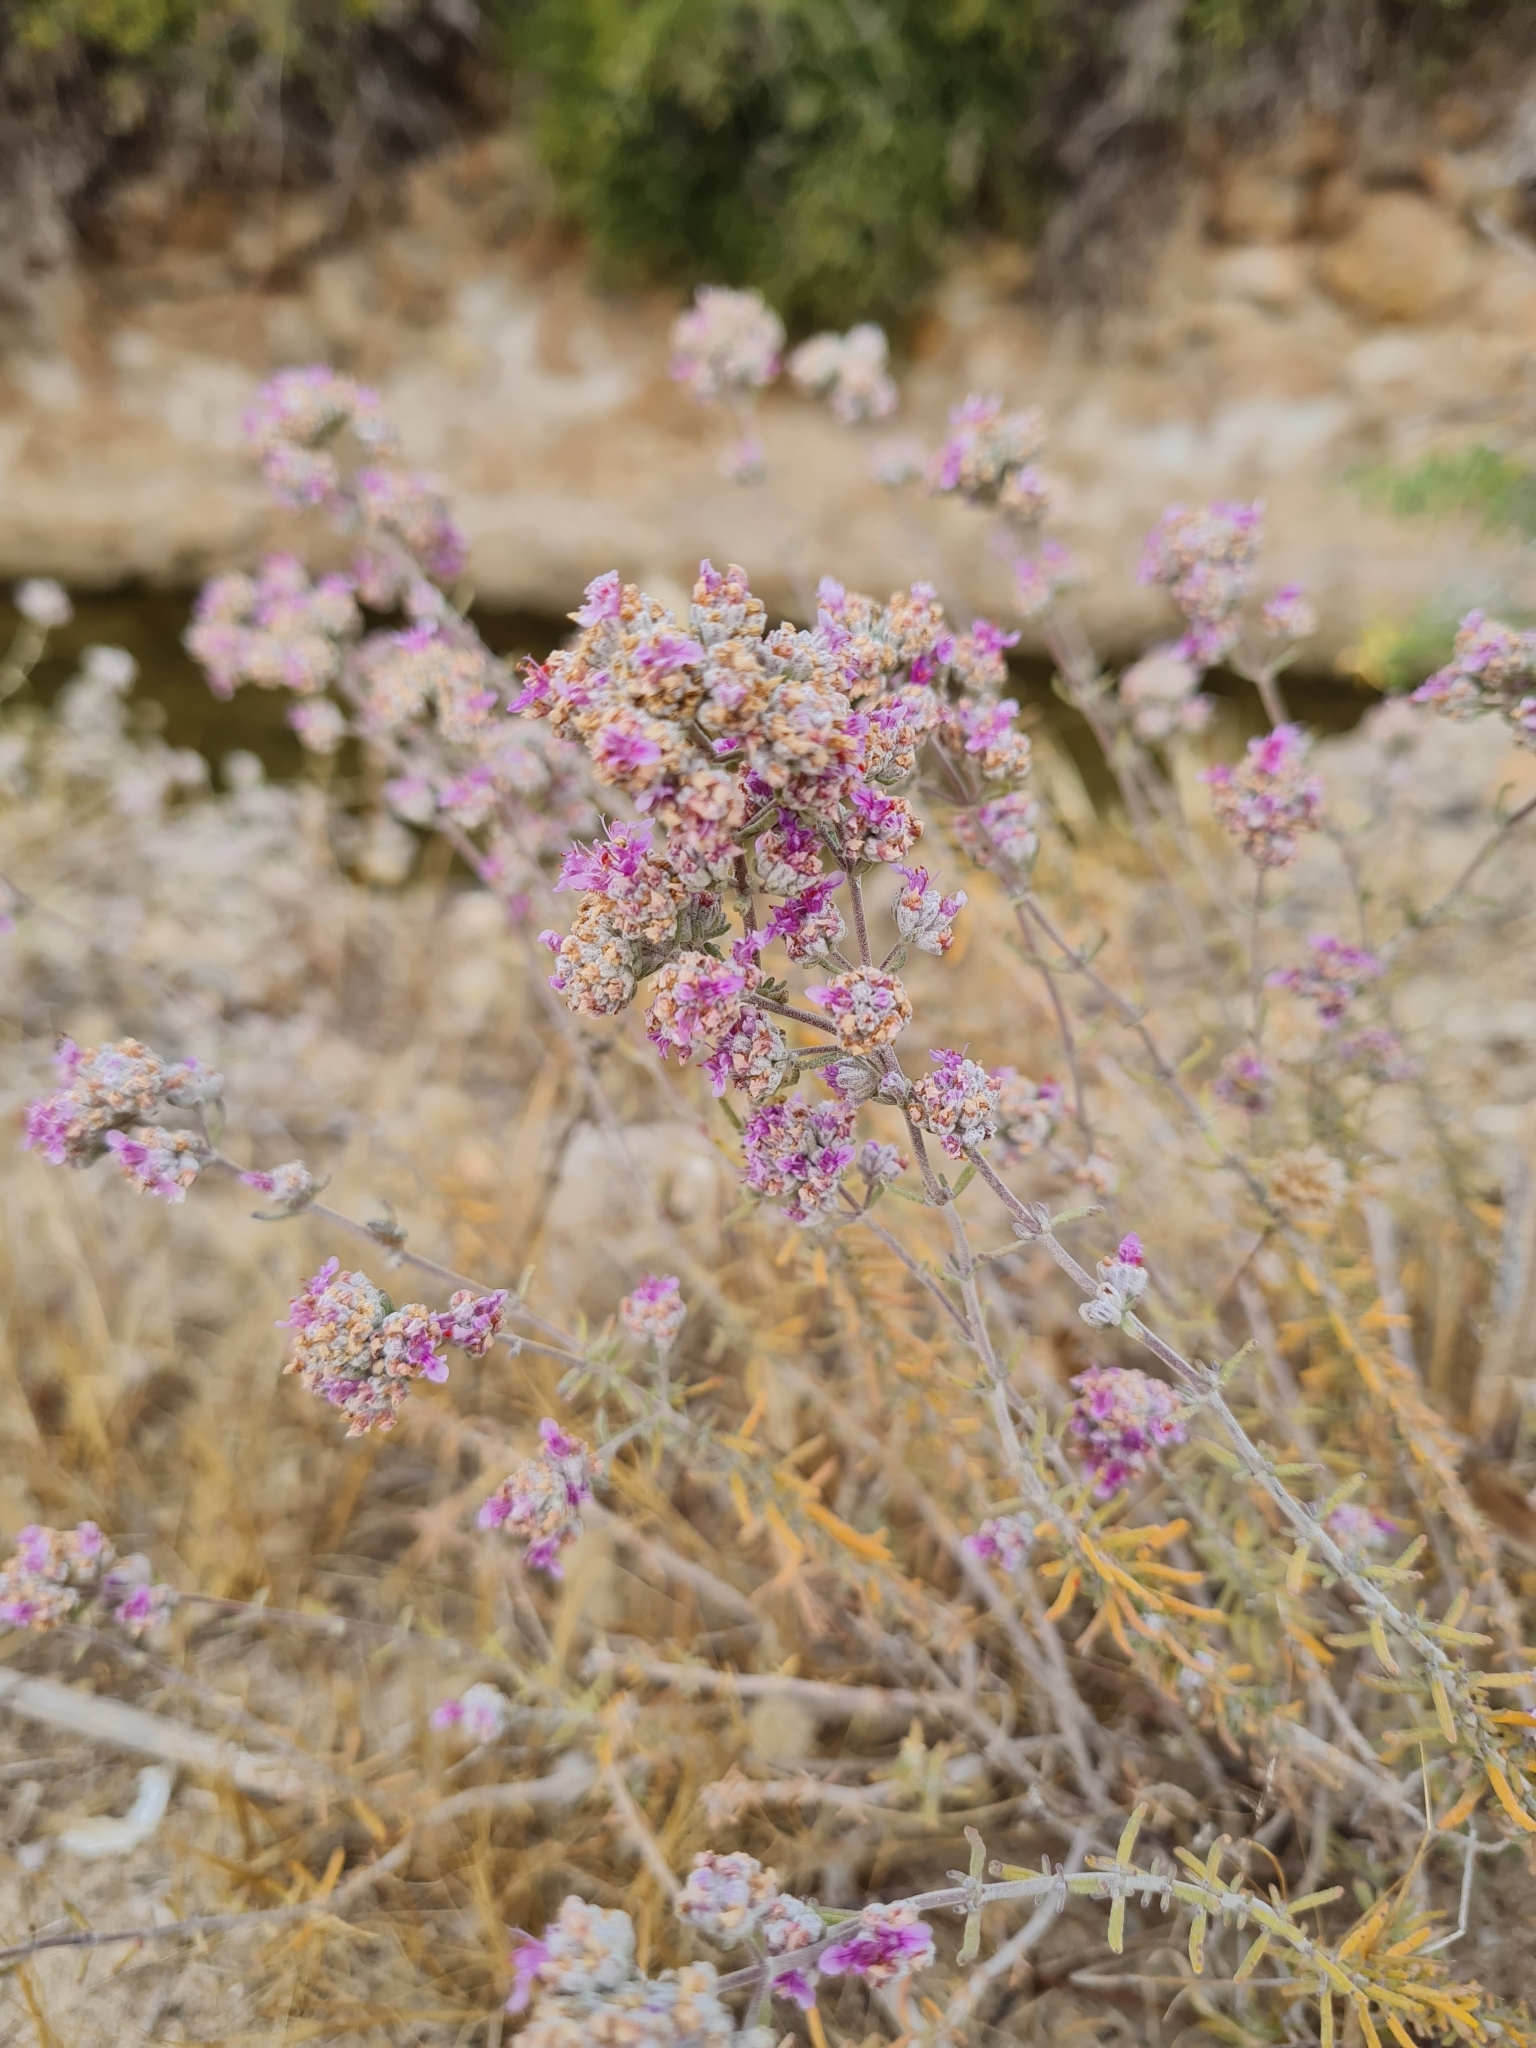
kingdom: Plantae
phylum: Tracheophyta
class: Magnoliopsida
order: Lamiales
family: Lamiaceae
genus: Teucrium
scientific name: Teucrium capitatum
